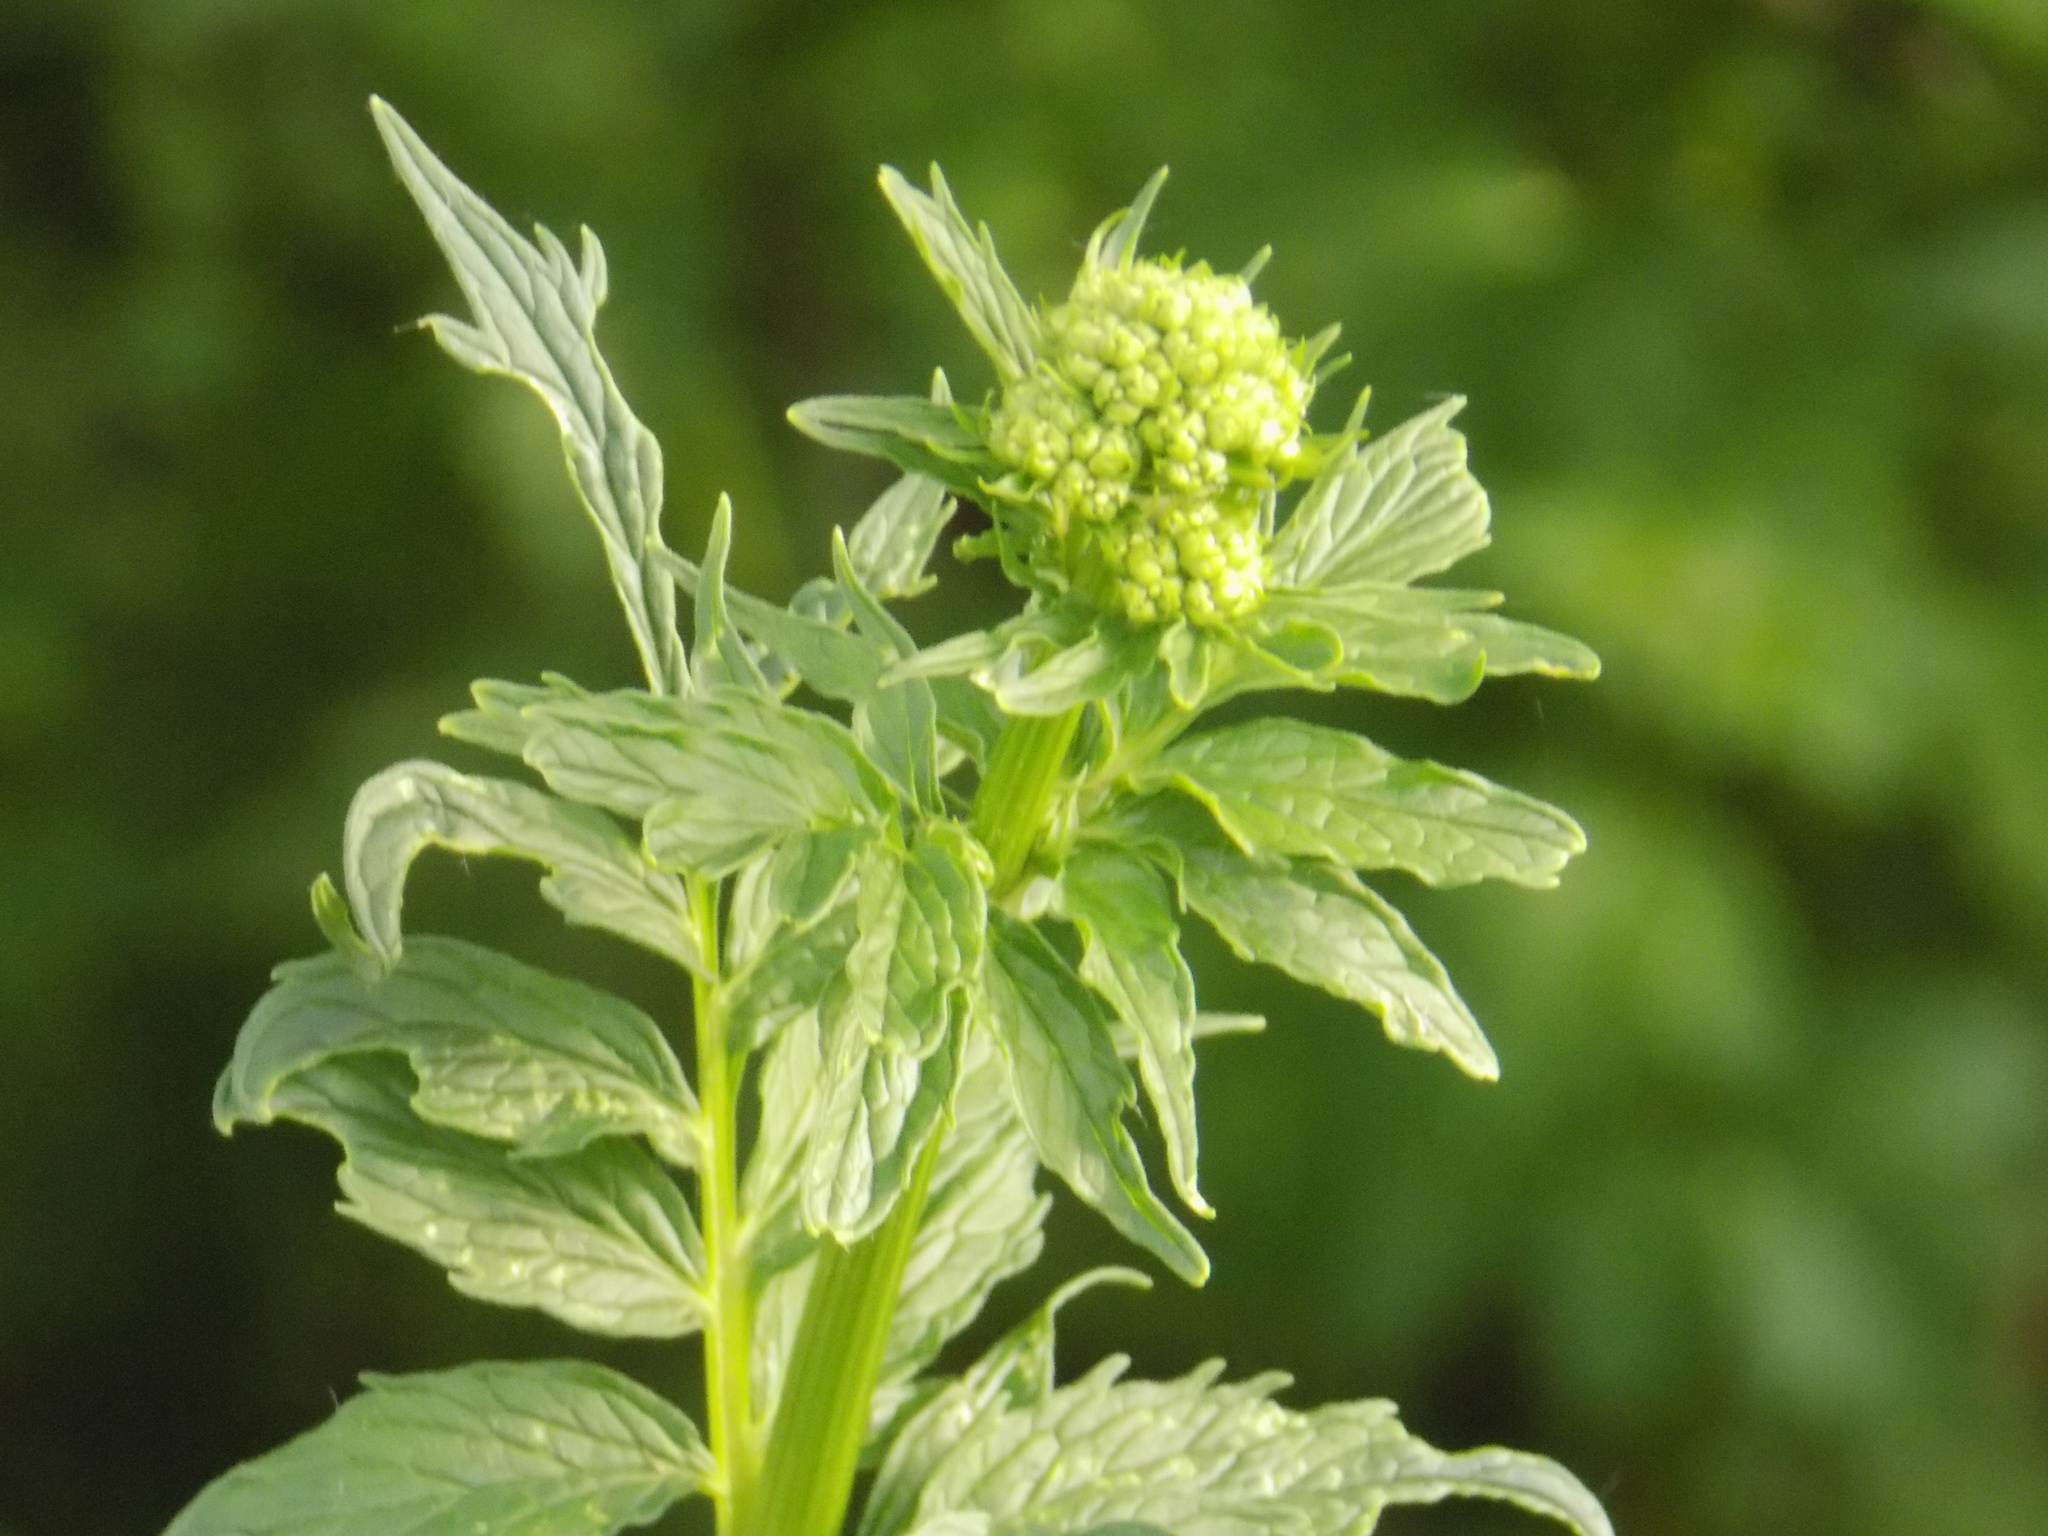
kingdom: Plantae
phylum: Tracheophyta
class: Magnoliopsida
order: Dipsacales
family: Caprifoliaceae
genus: Valeriana
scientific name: Valeriana officinalis
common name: Common valerian
